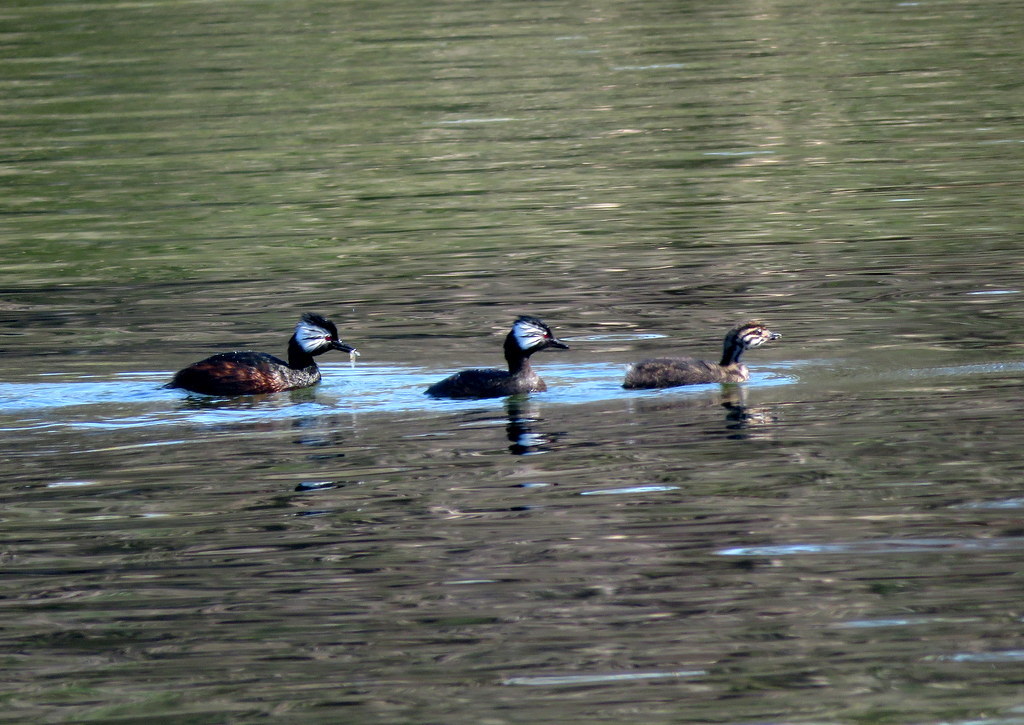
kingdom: Animalia
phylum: Chordata
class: Aves
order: Podicipediformes
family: Podicipedidae
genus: Rollandia
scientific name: Rollandia rolland
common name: White-tufted grebe
